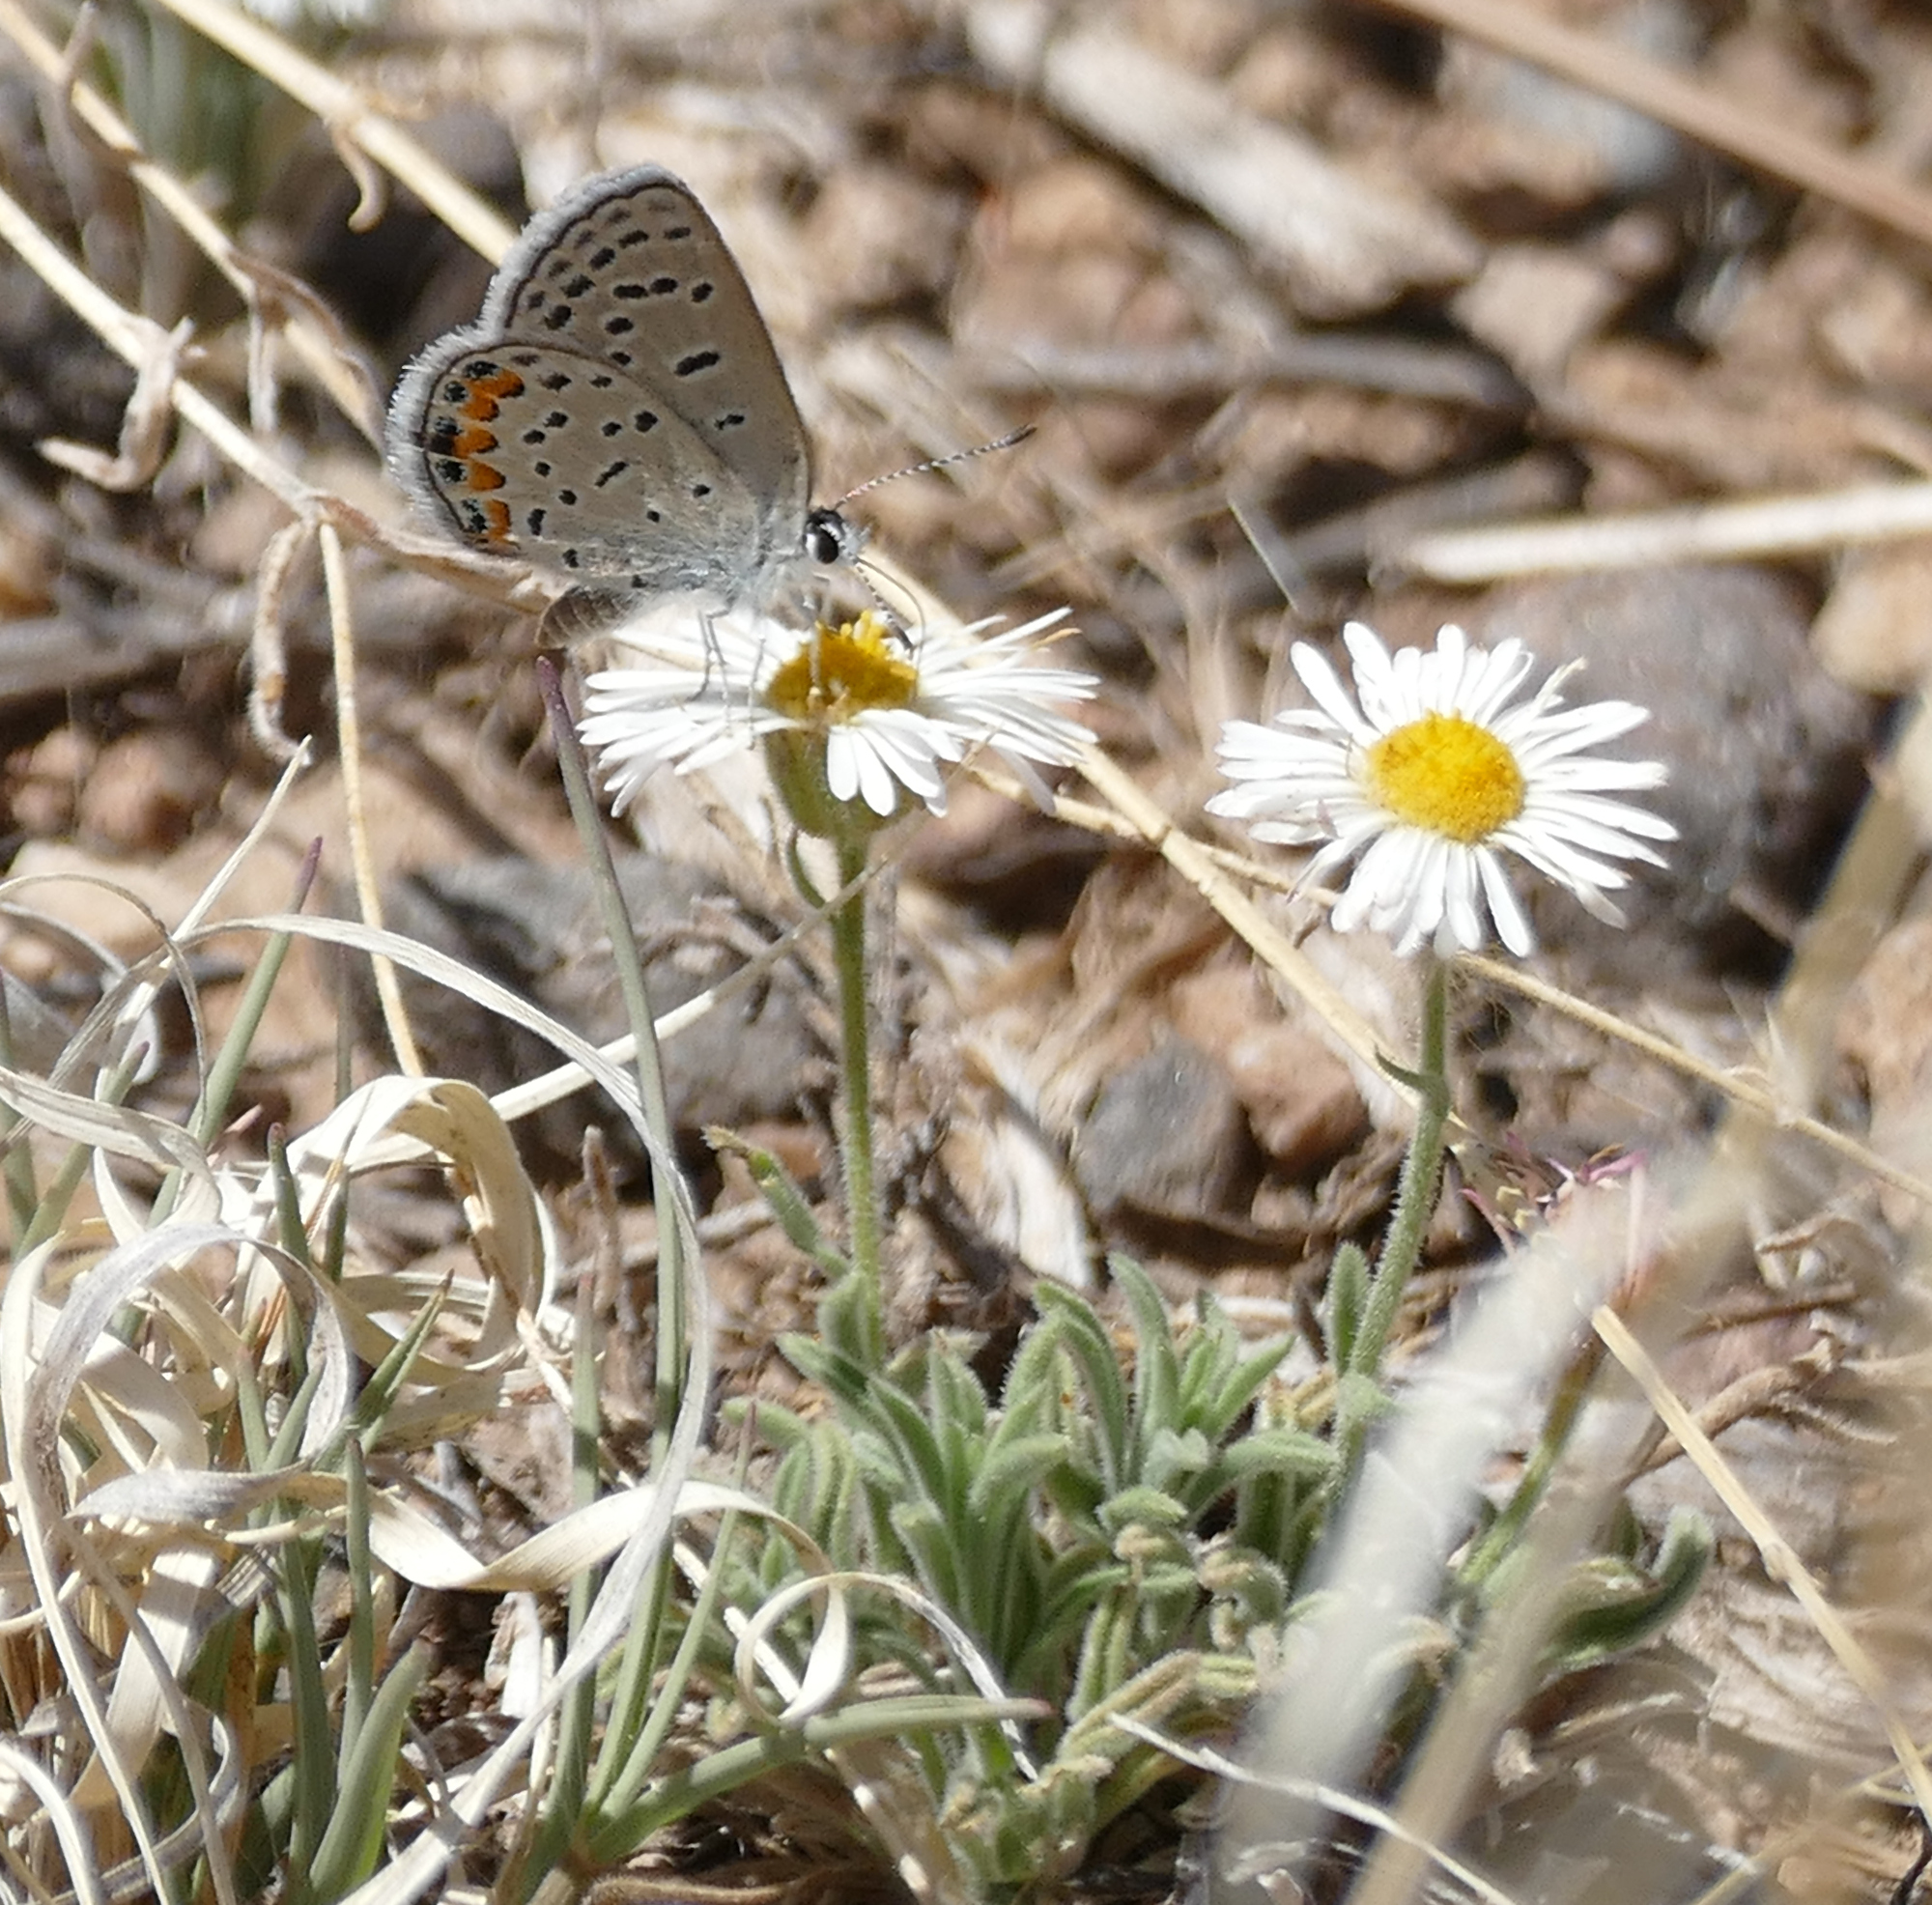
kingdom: Animalia
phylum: Arthropoda
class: Insecta
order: Lepidoptera
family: Lycaenidae
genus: Icaricia
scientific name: Icaricia lupini
